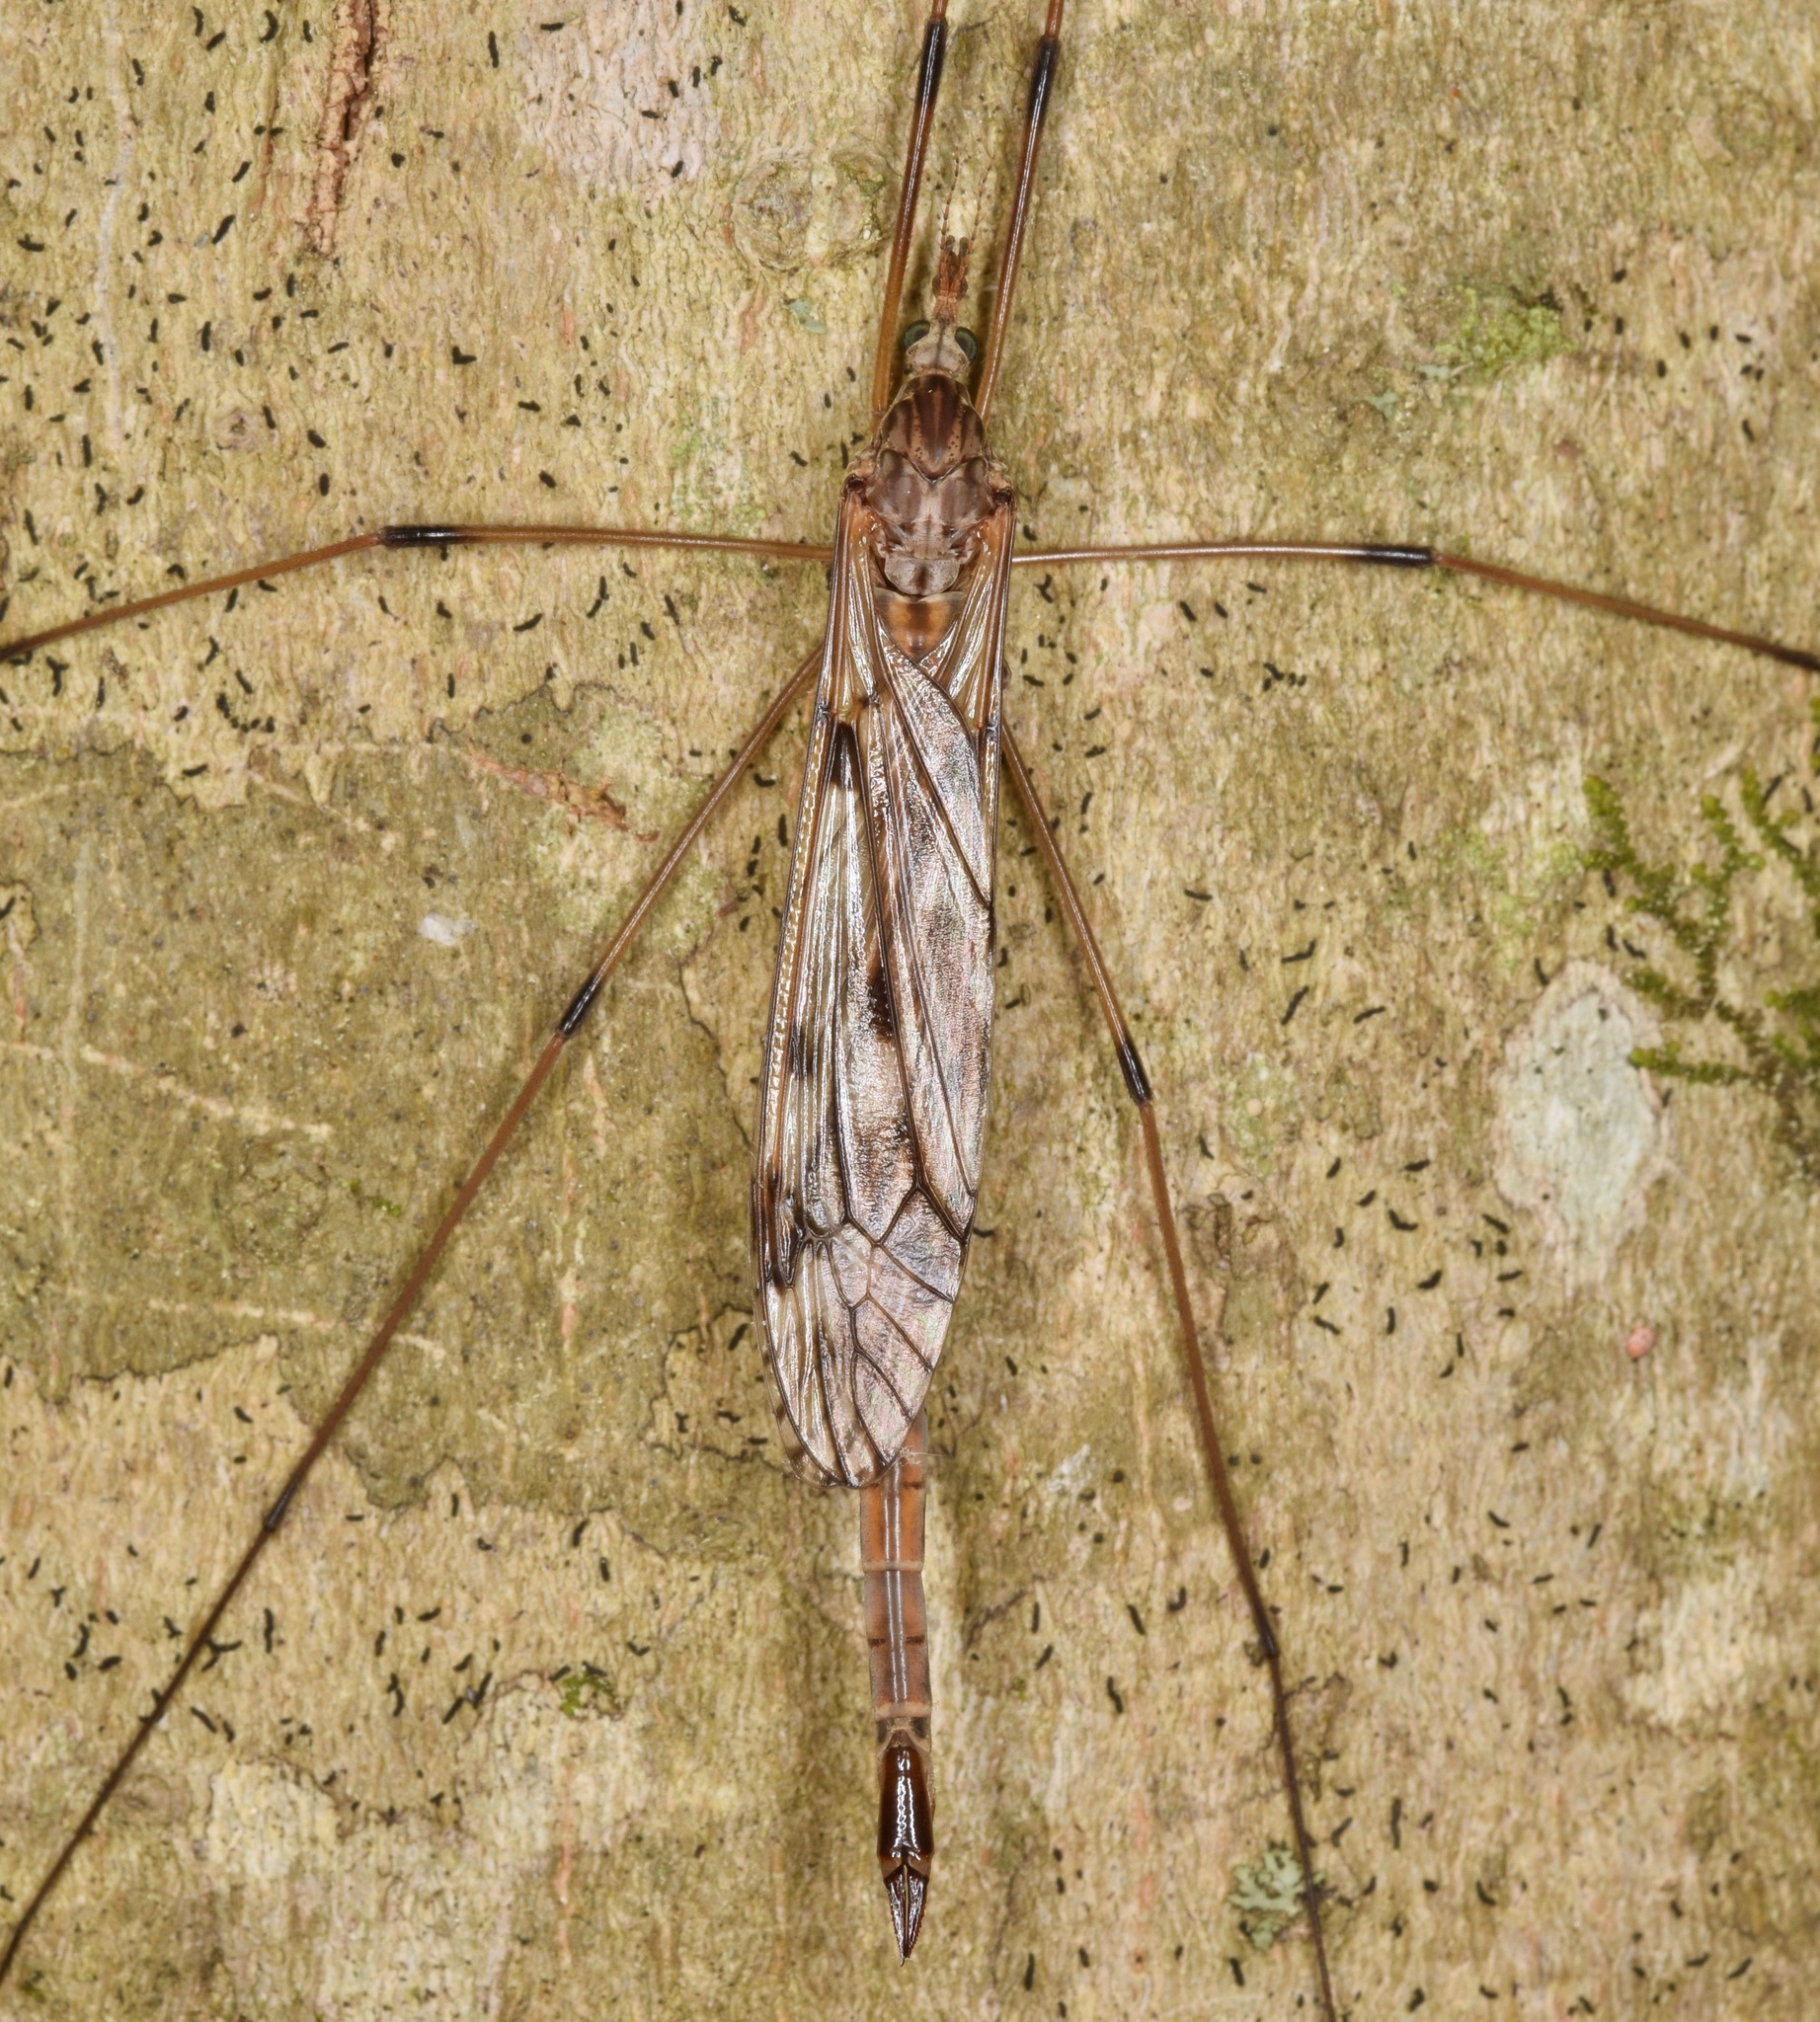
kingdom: Animalia
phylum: Arthropoda
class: Insecta
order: Diptera
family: Tipulidae
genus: Tipula
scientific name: Tipula longiventris
